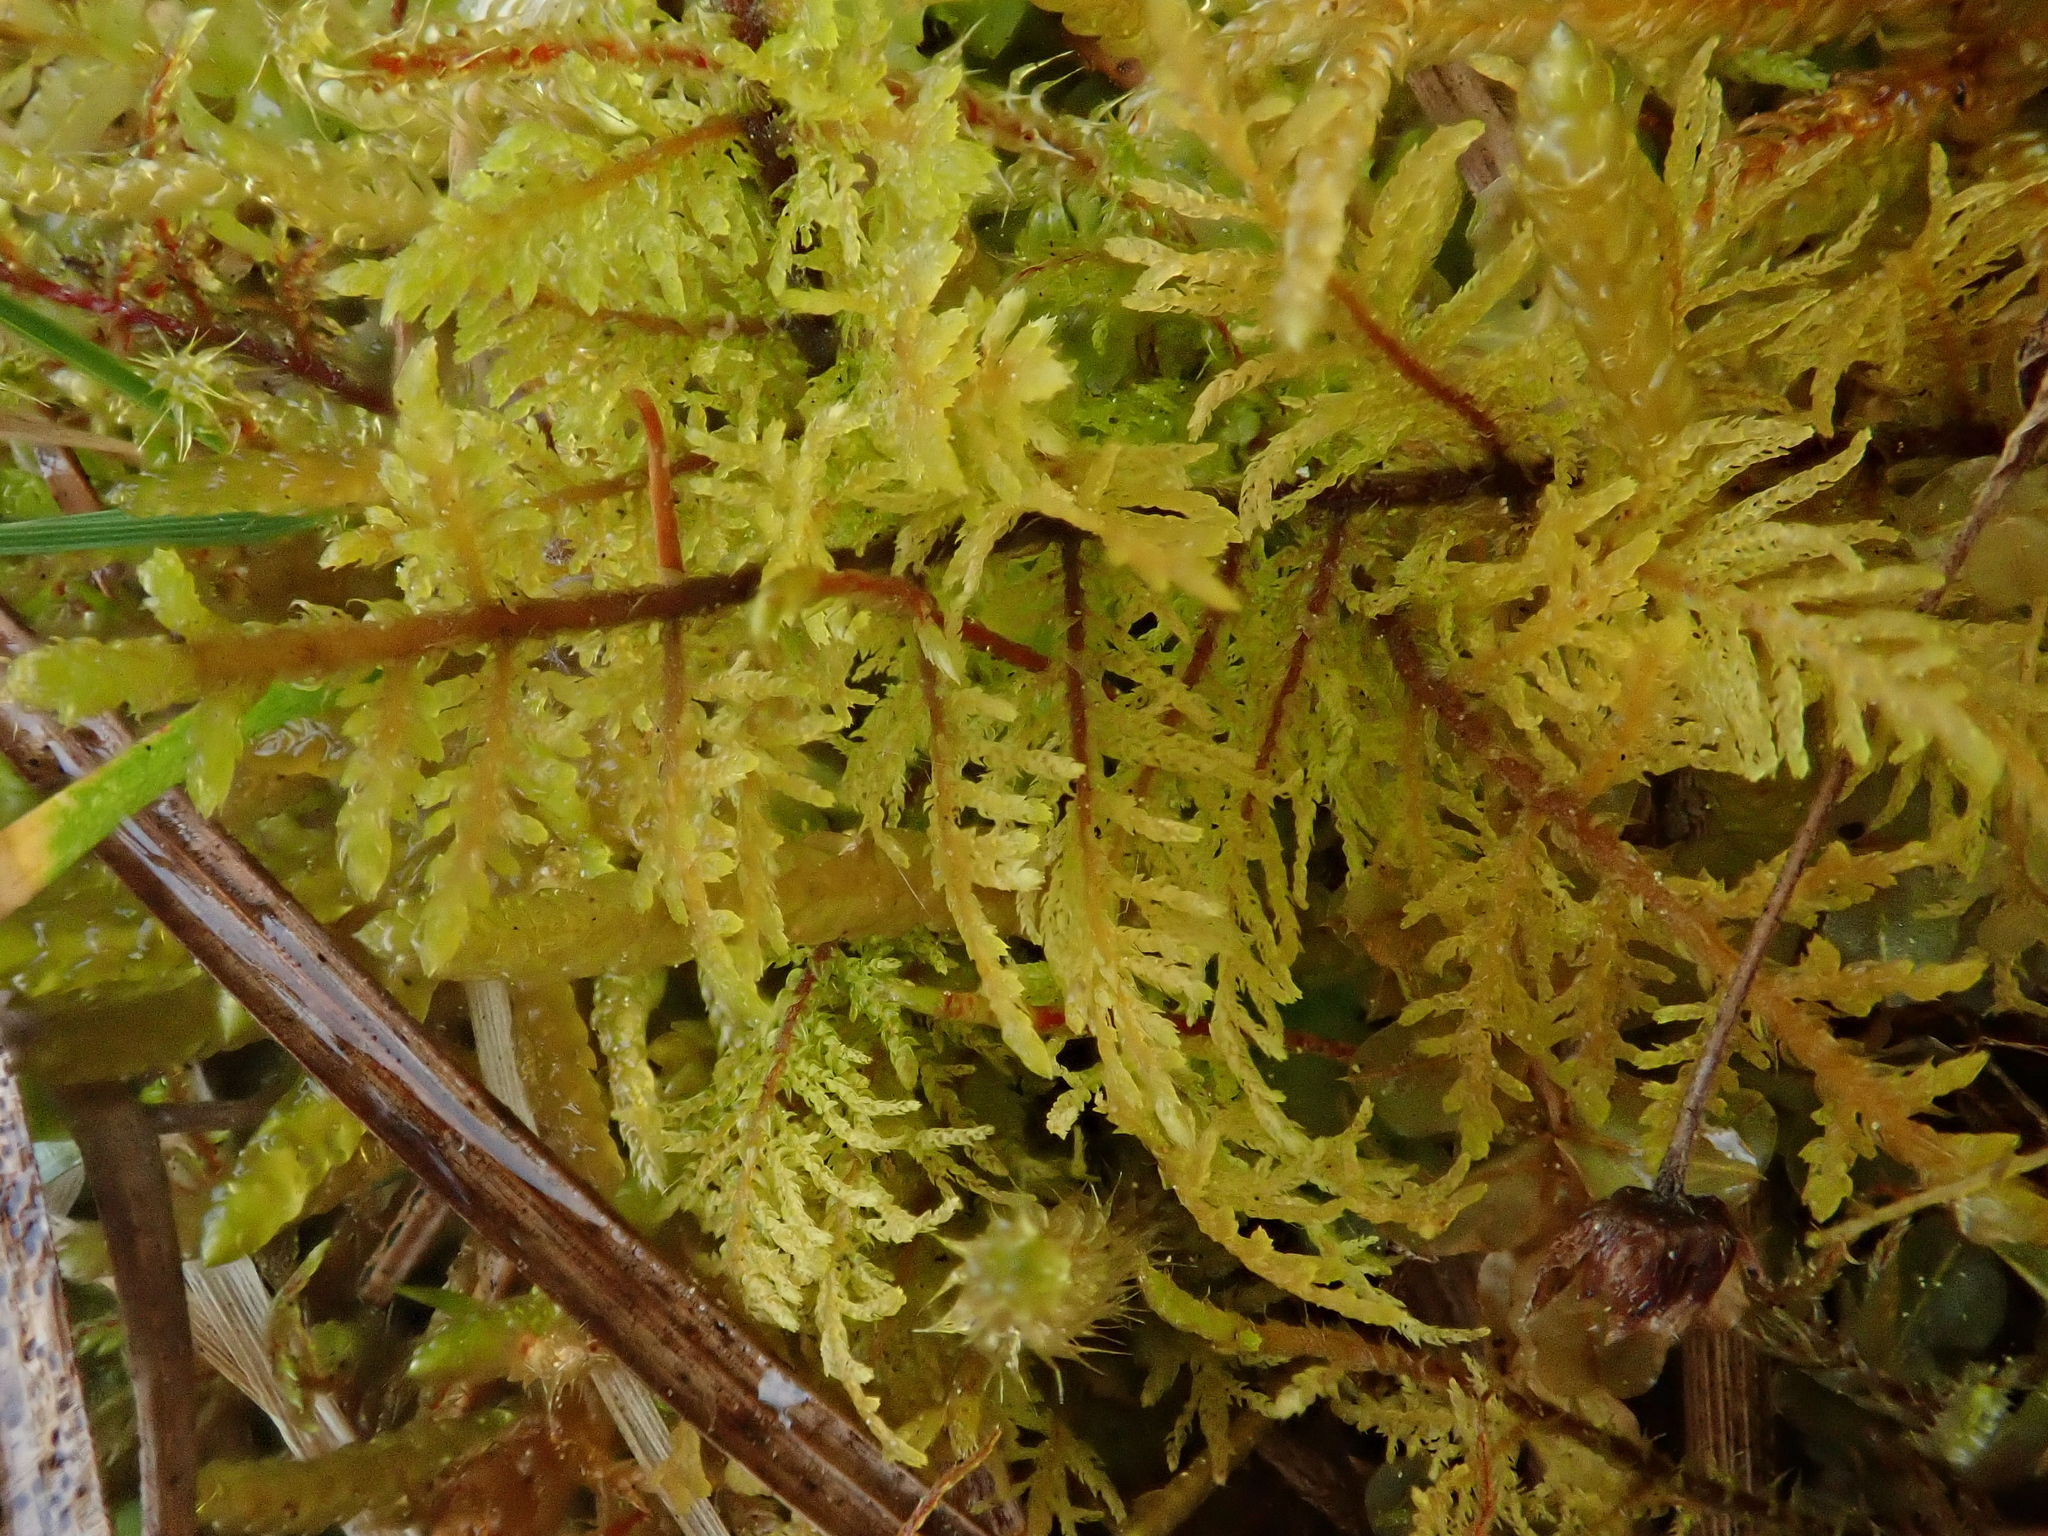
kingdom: Plantae
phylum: Bryophyta
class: Bryopsida
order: Hypnales
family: Thuidiaceae
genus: Thuidium
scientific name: Thuidium assimile
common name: Philibert's fern moss
